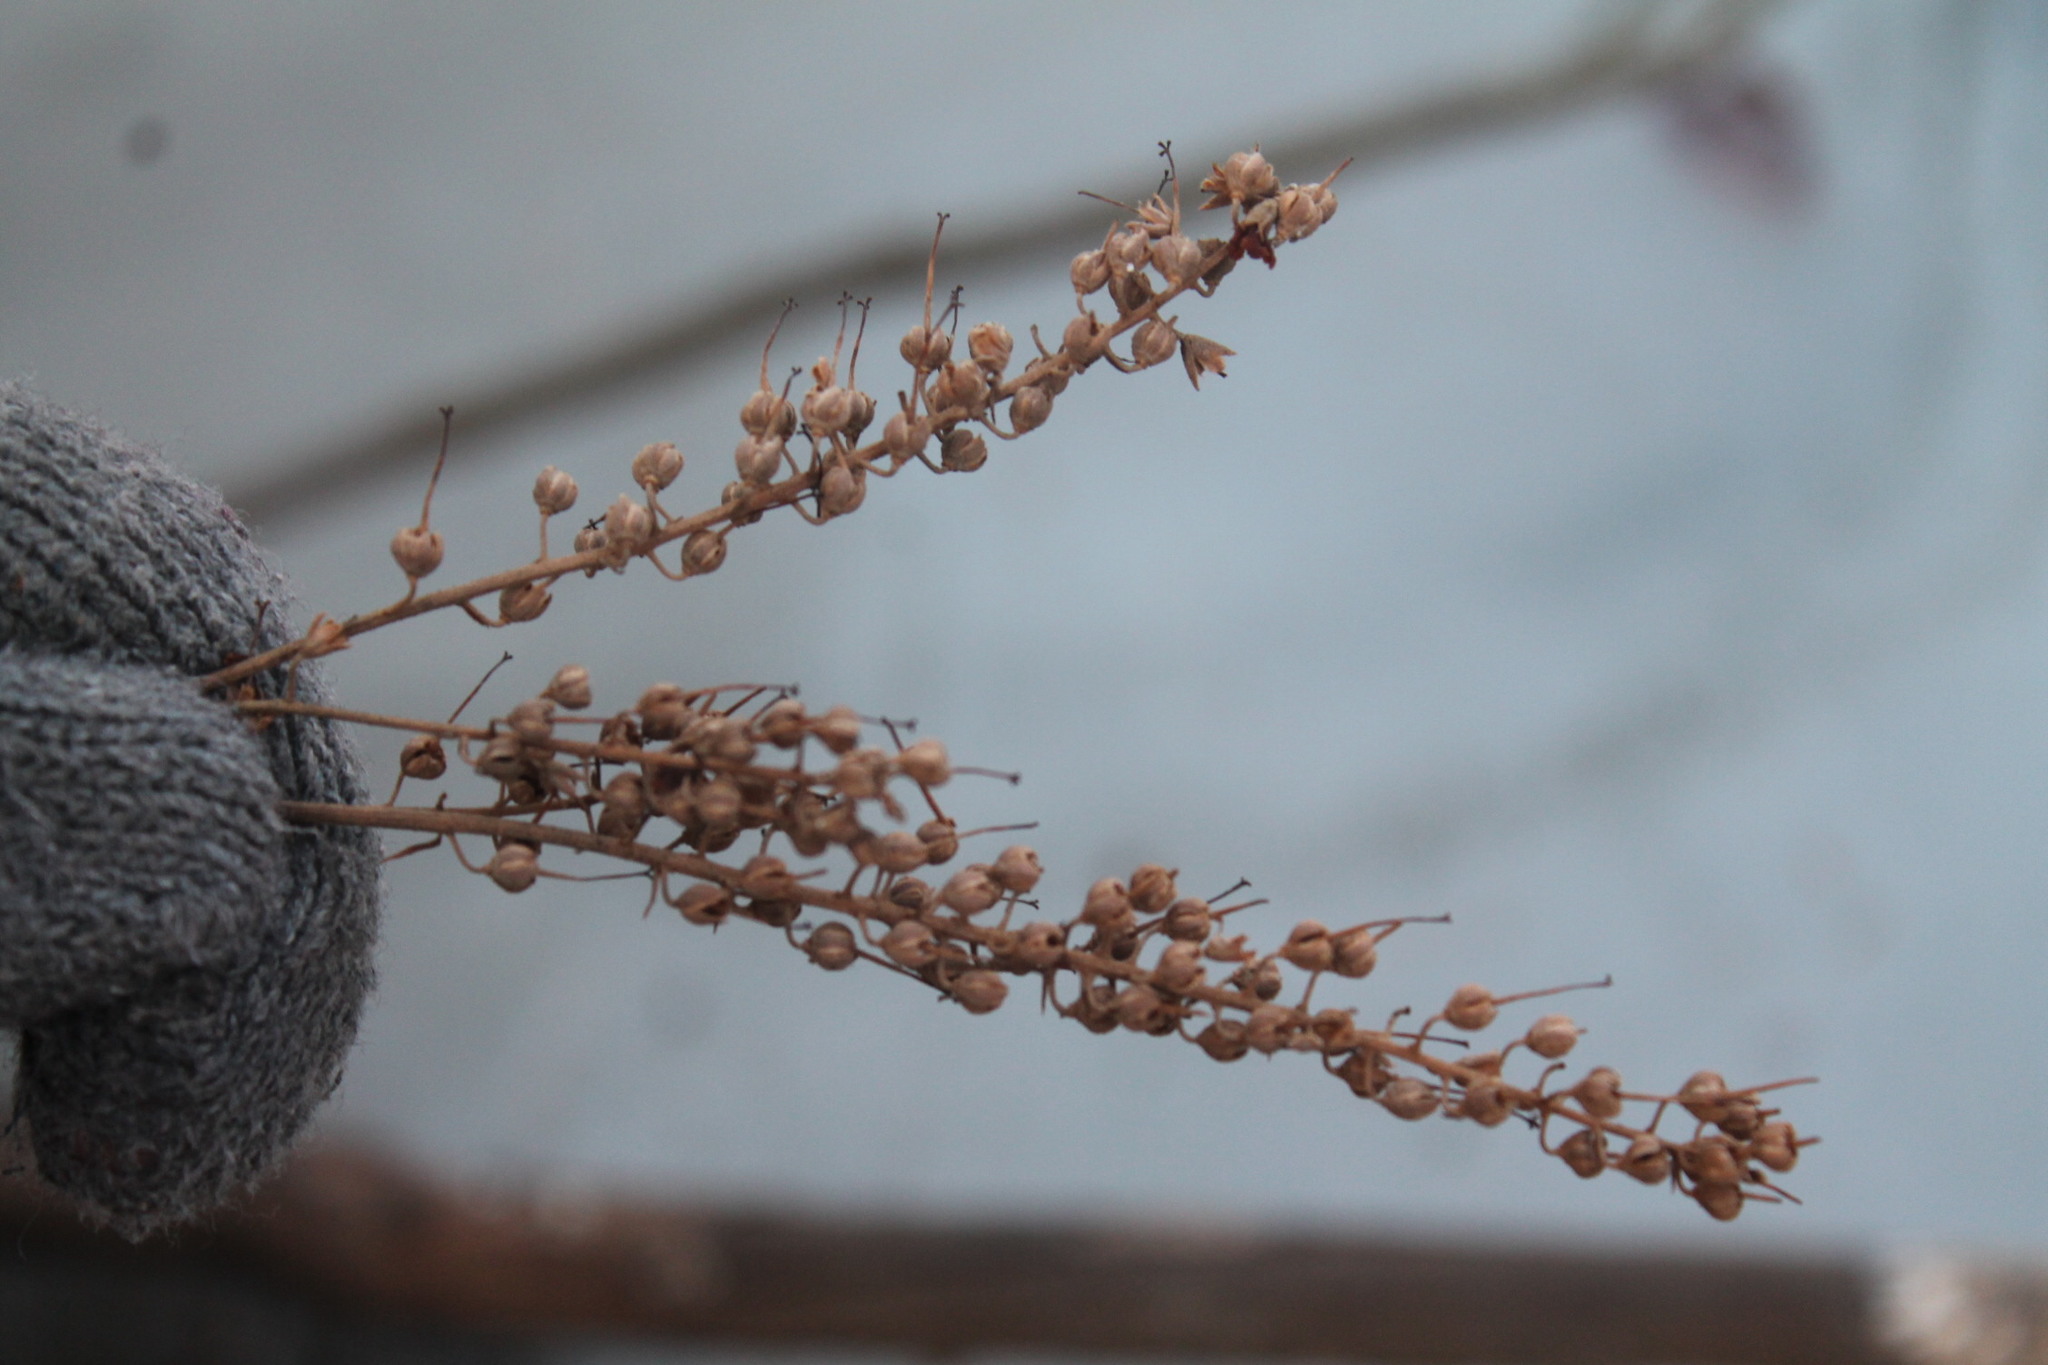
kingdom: Plantae
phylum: Tracheophyta
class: Magnoliopsida
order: Ericales
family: Clethraceae
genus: Clethra
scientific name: Clethra alnifolia
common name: Sweet pepperbush
